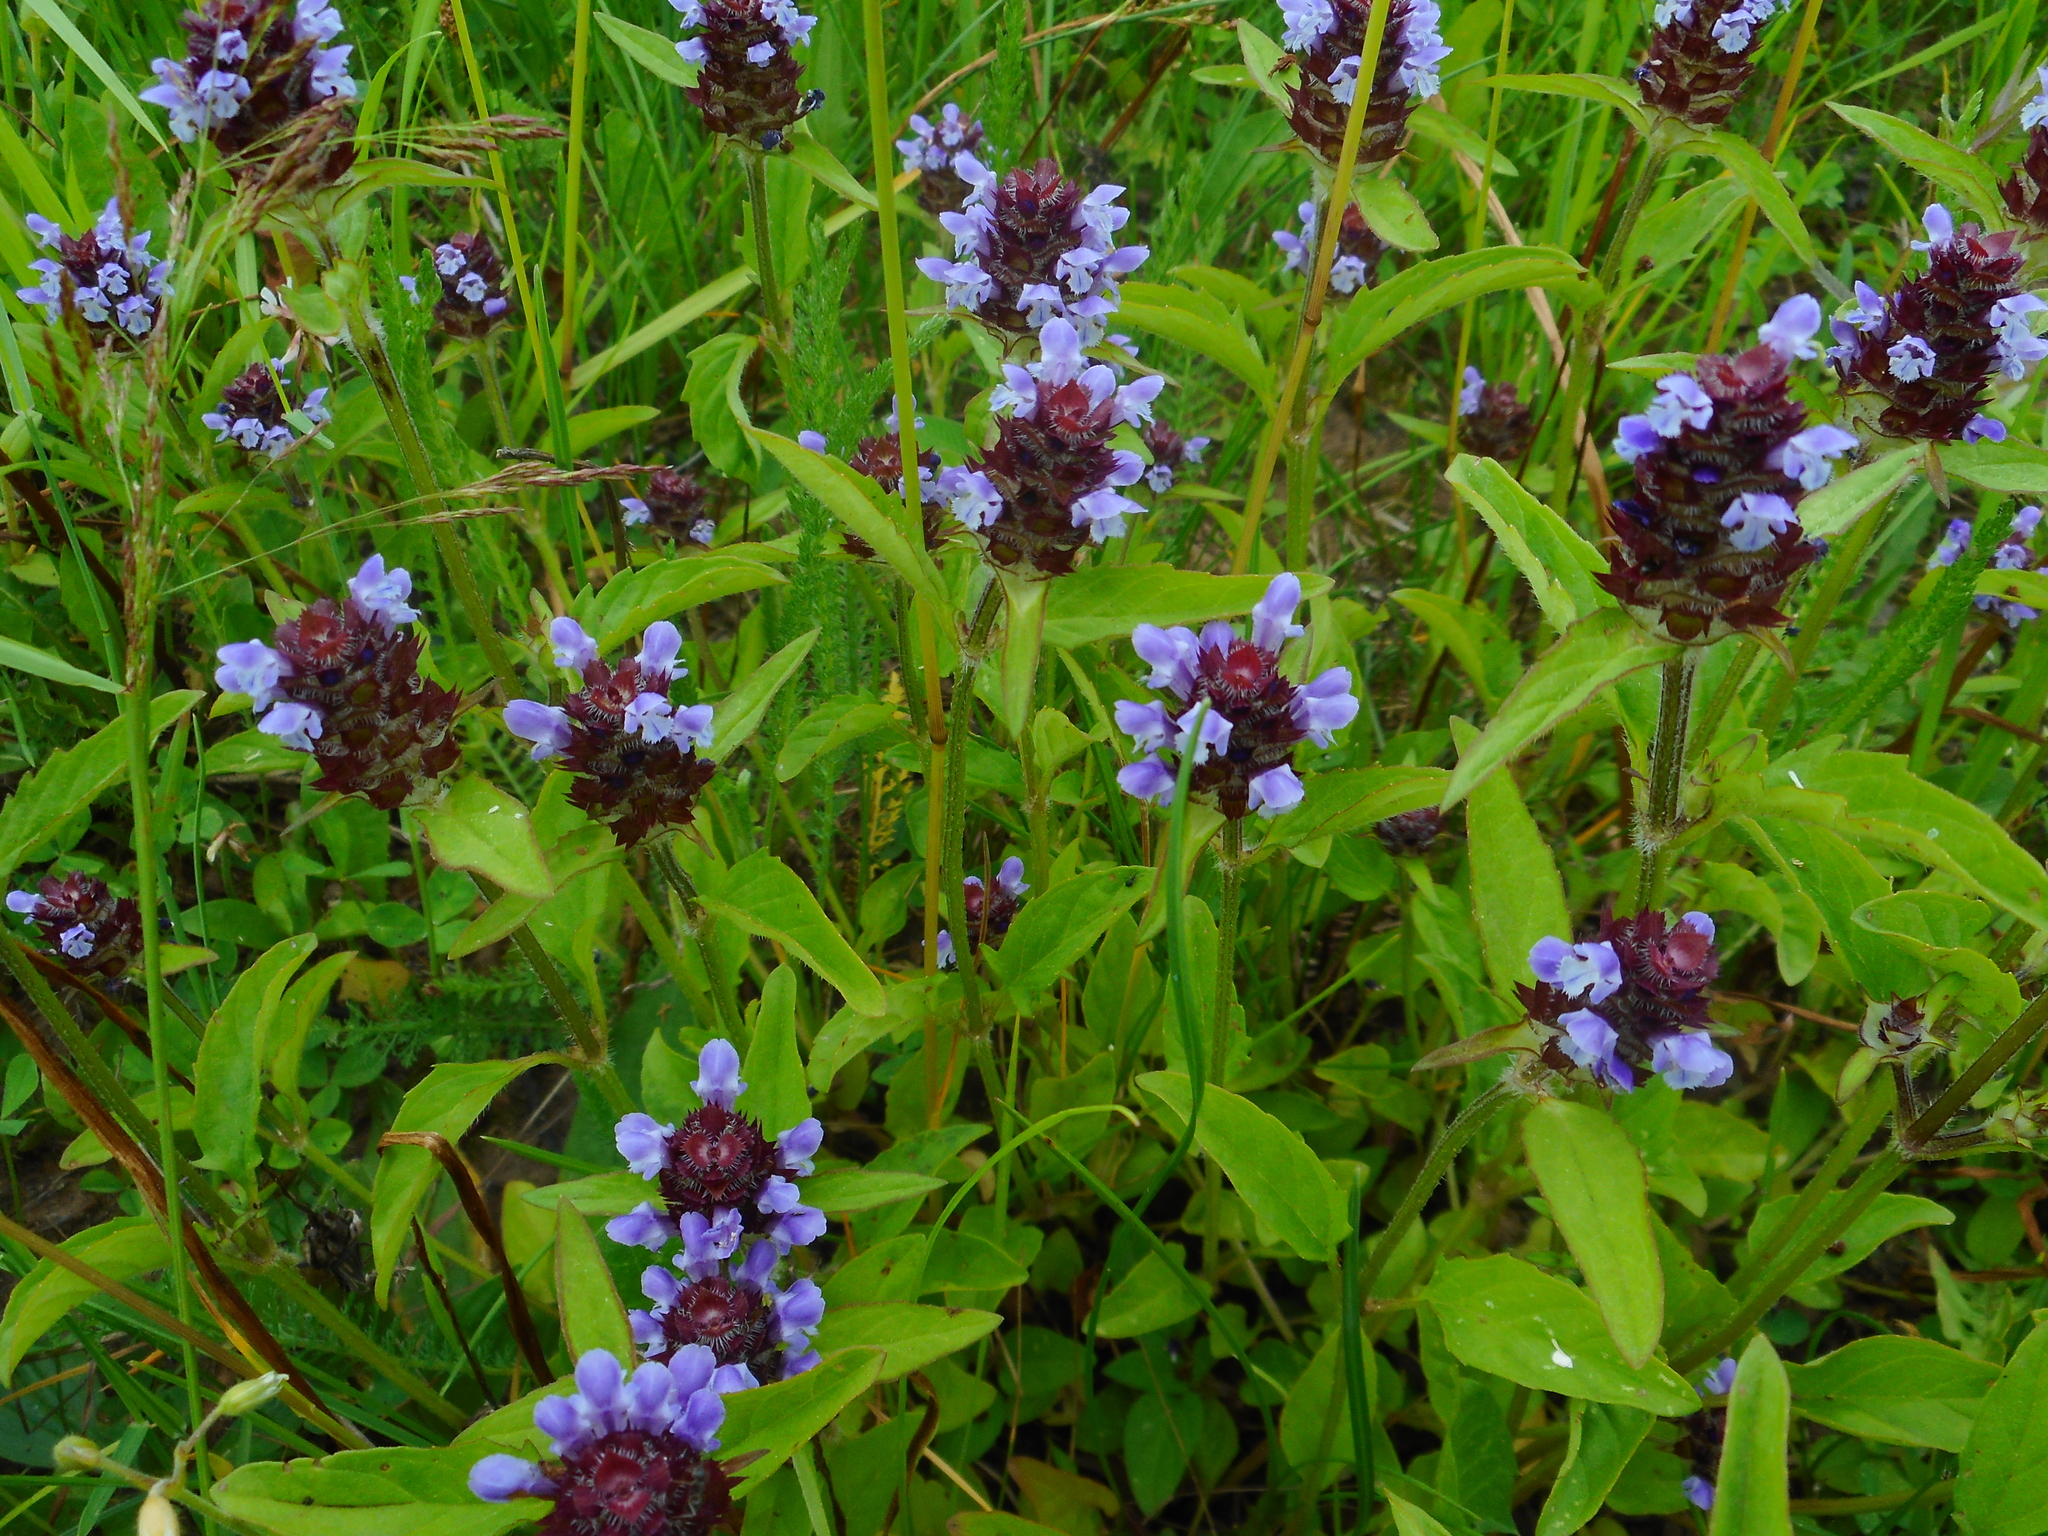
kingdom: Plantae
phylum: Tracheophyta
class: Magnoliopsida
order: Lamiales
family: Lamiaceae
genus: Prunella
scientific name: Prunella vulgaris
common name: Heal-all
